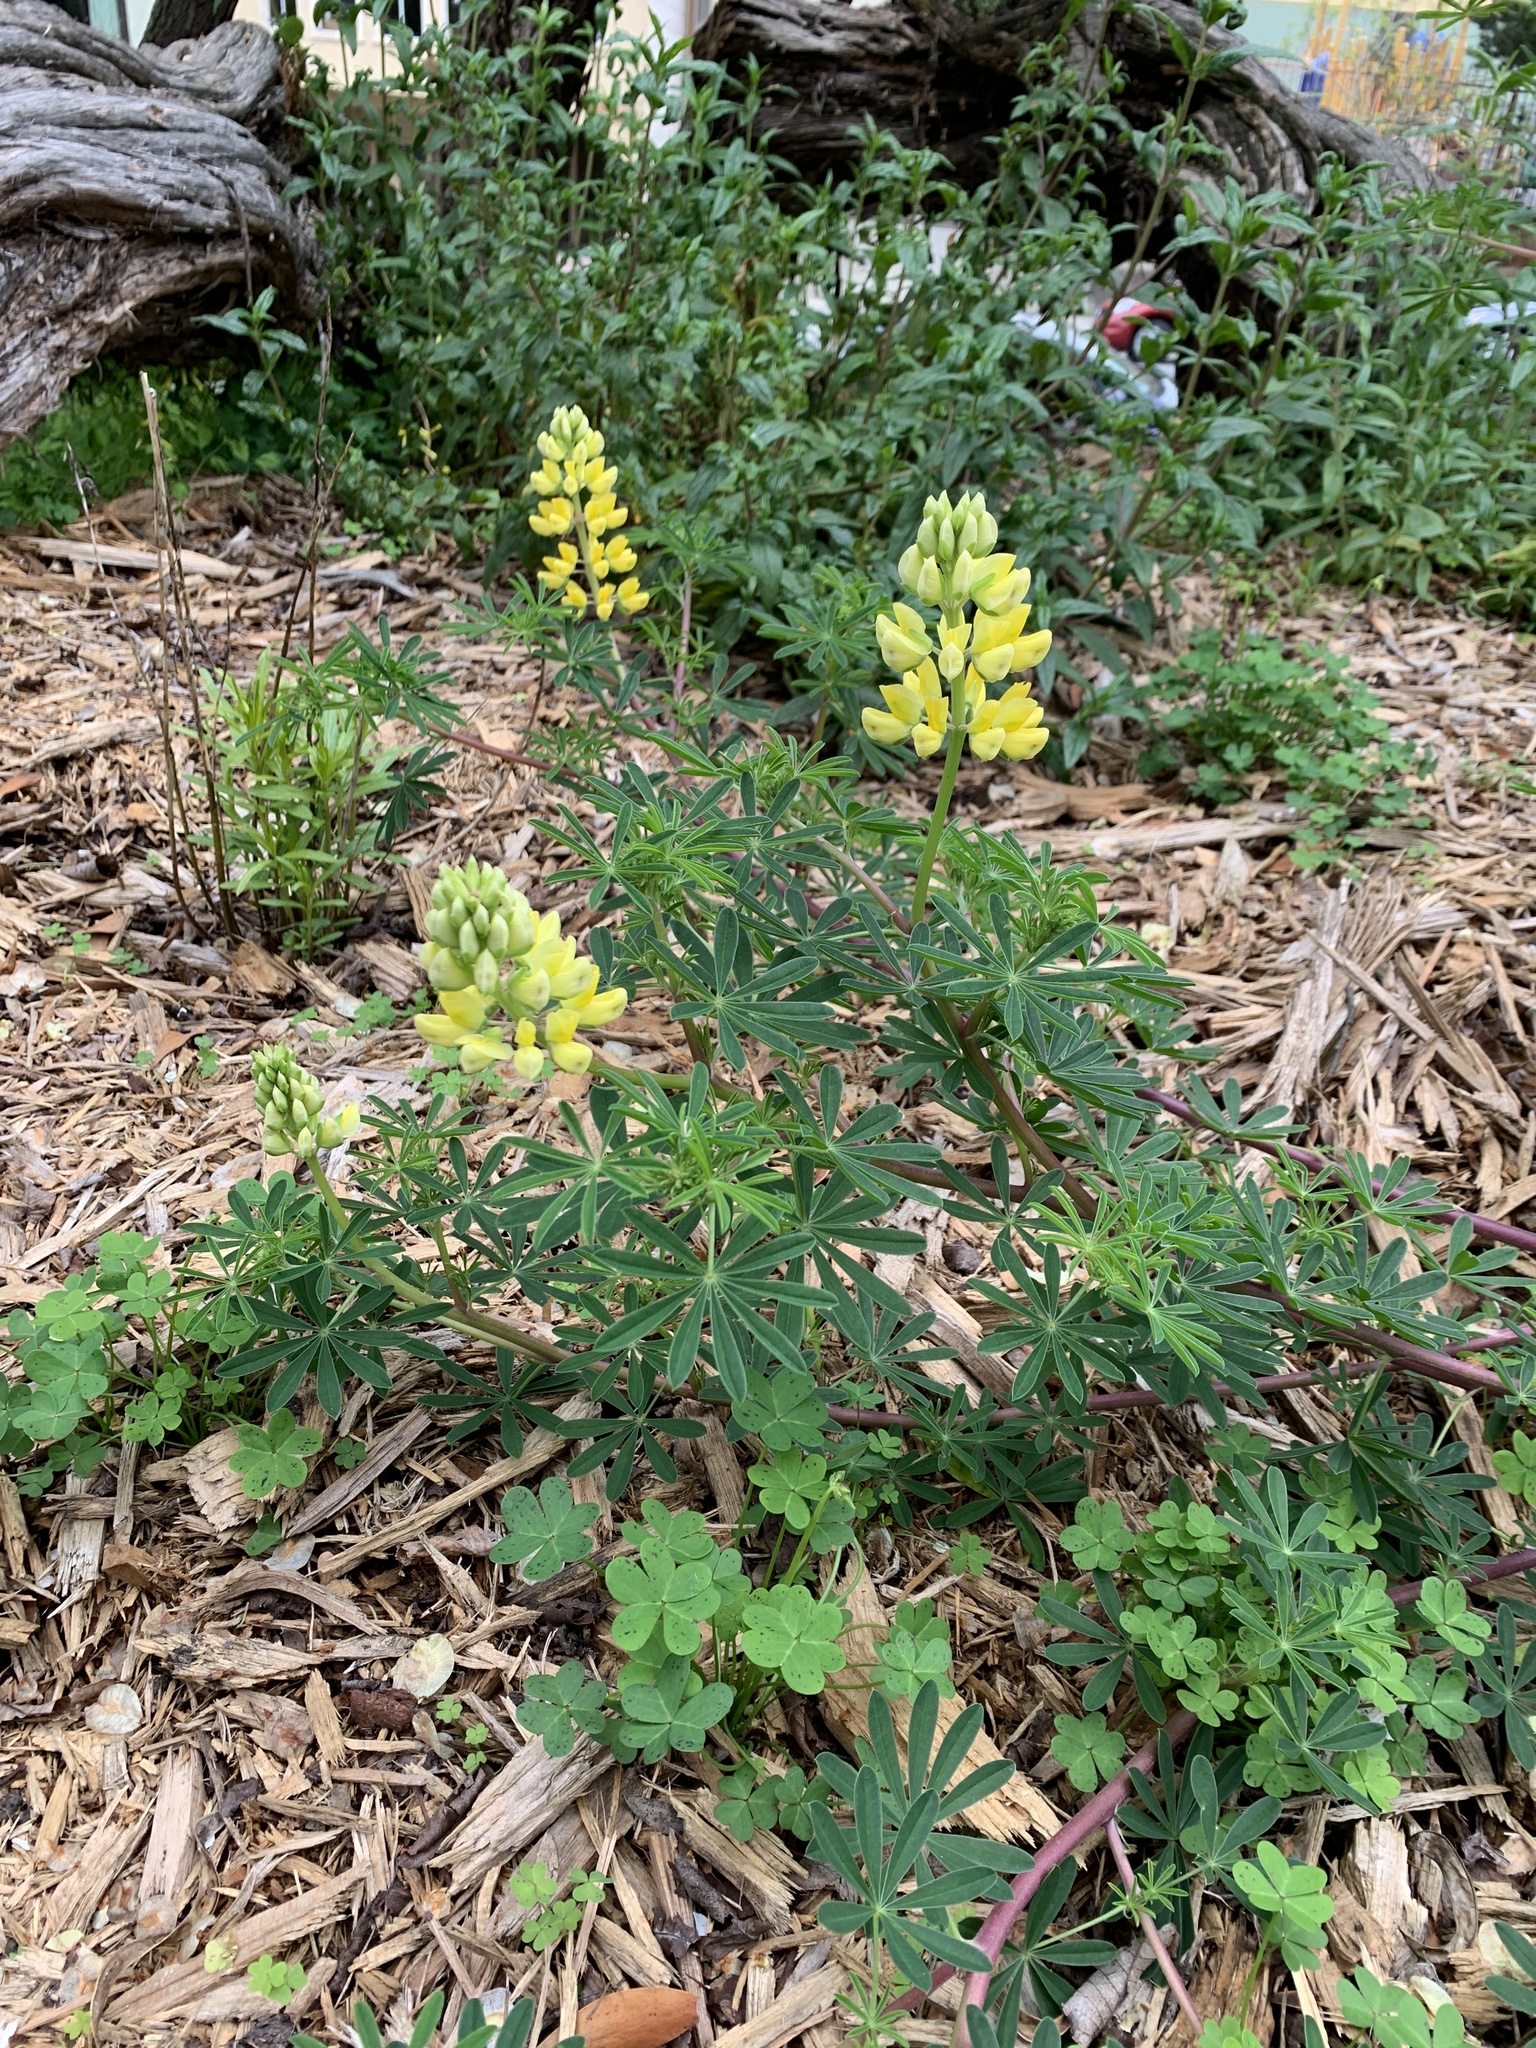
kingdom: Plantae
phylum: Tracheophyta
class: Magnoliopsida
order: Fabales
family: Fabaceae
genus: Lupinus
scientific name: Lupinus arboreus
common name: Yellow bush lupine
